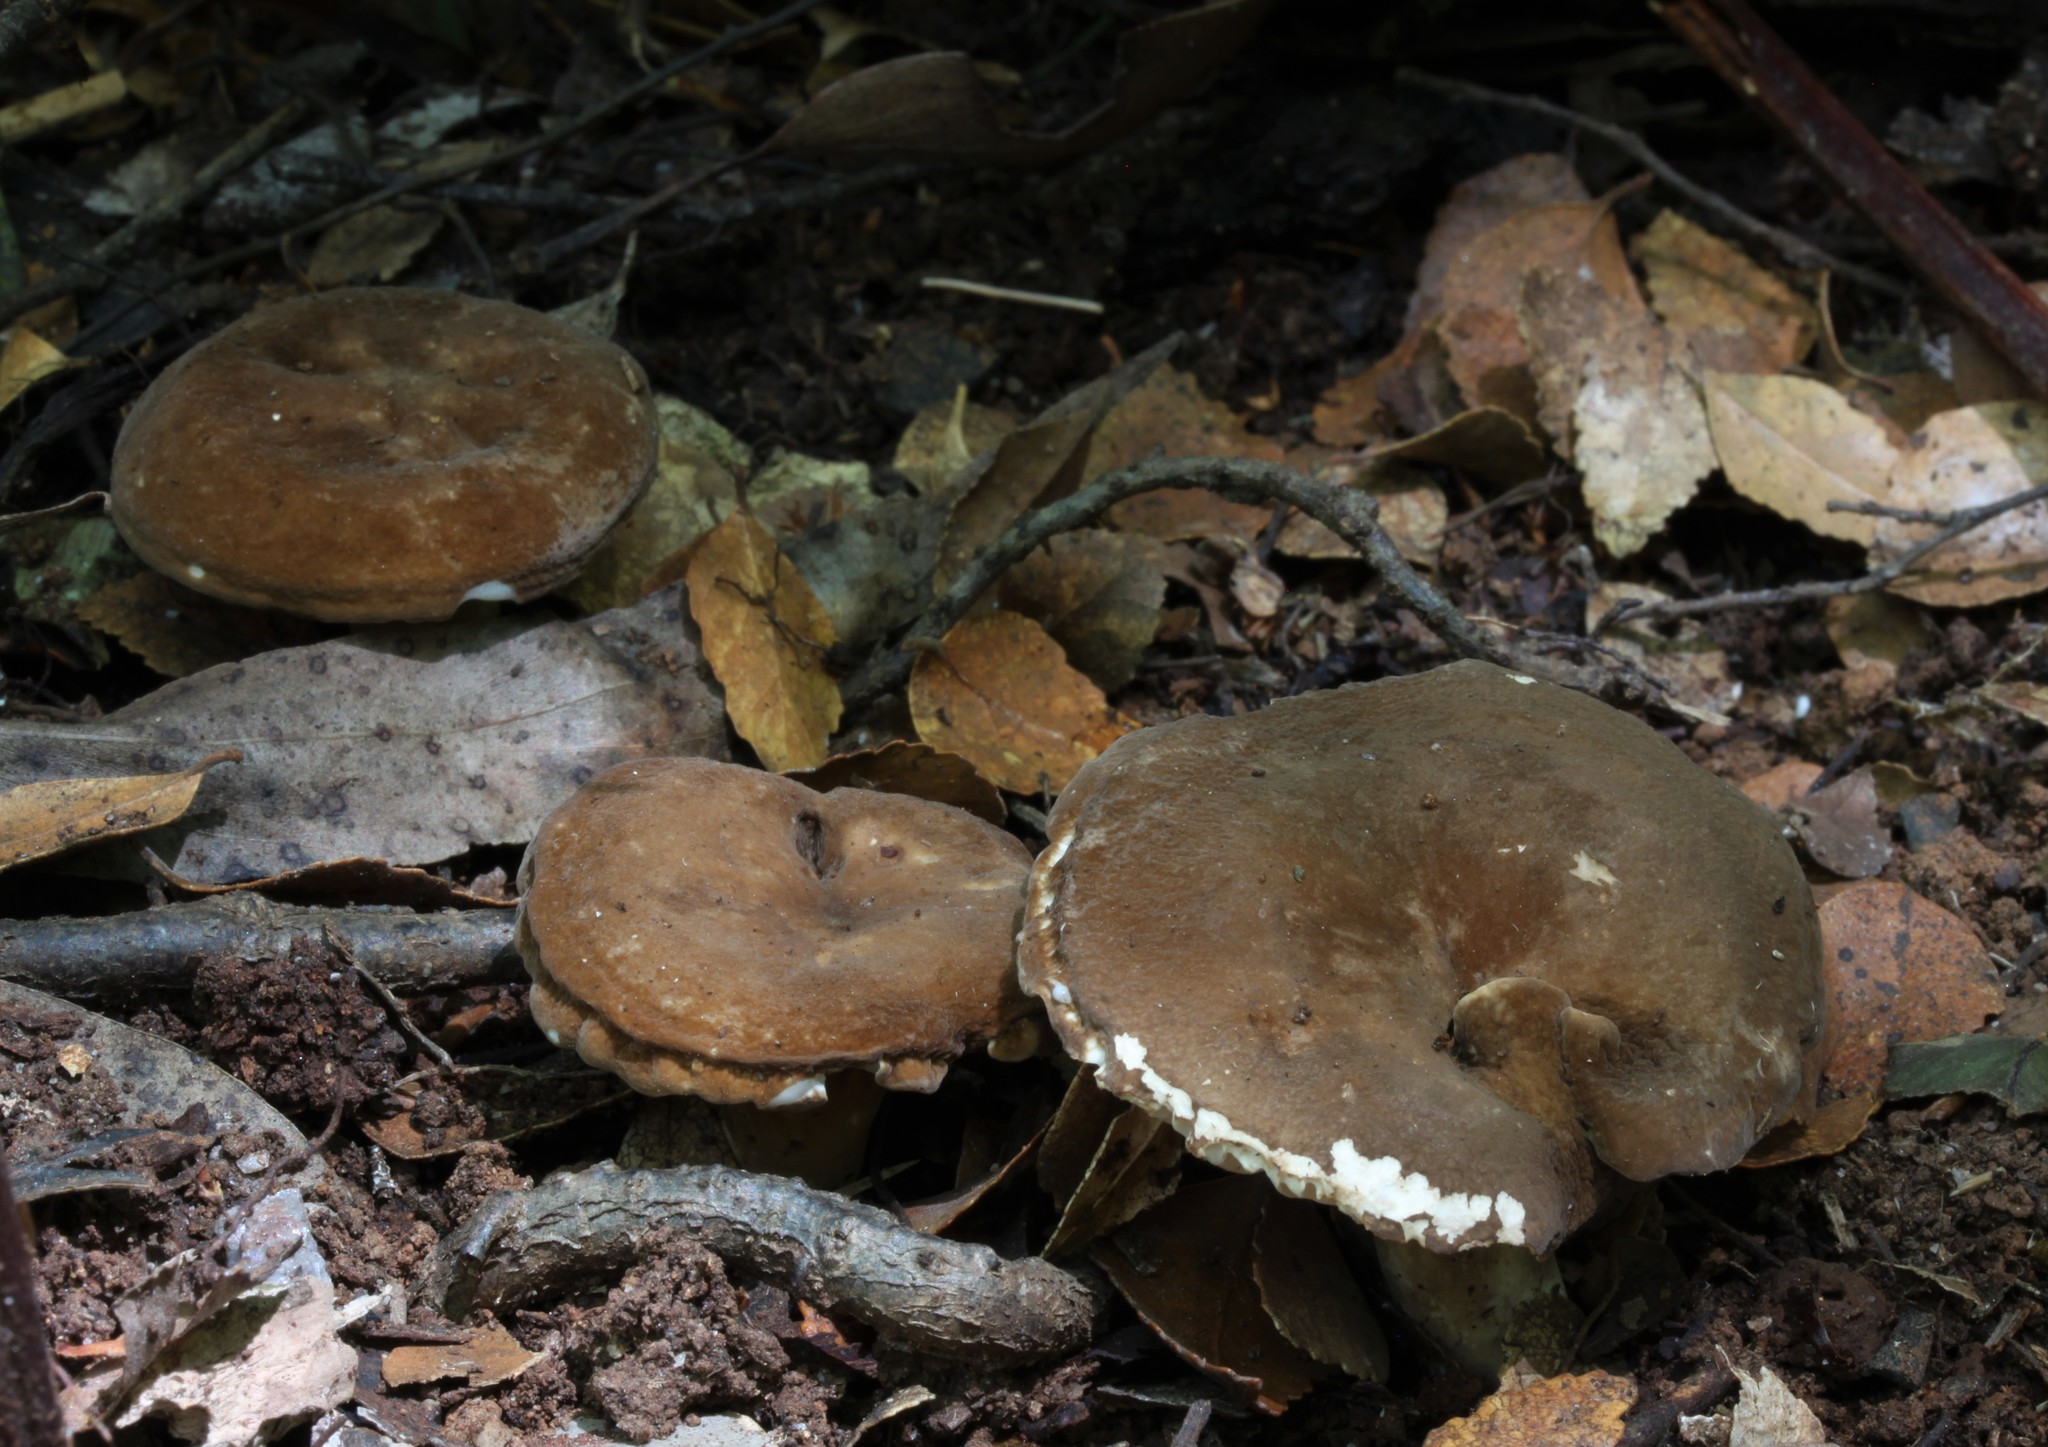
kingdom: Fungi
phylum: Basidiomycota
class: Agaricomycetes
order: Russulales
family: Russulaceae
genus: Lactifluus
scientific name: Lactifluus wirrabara
